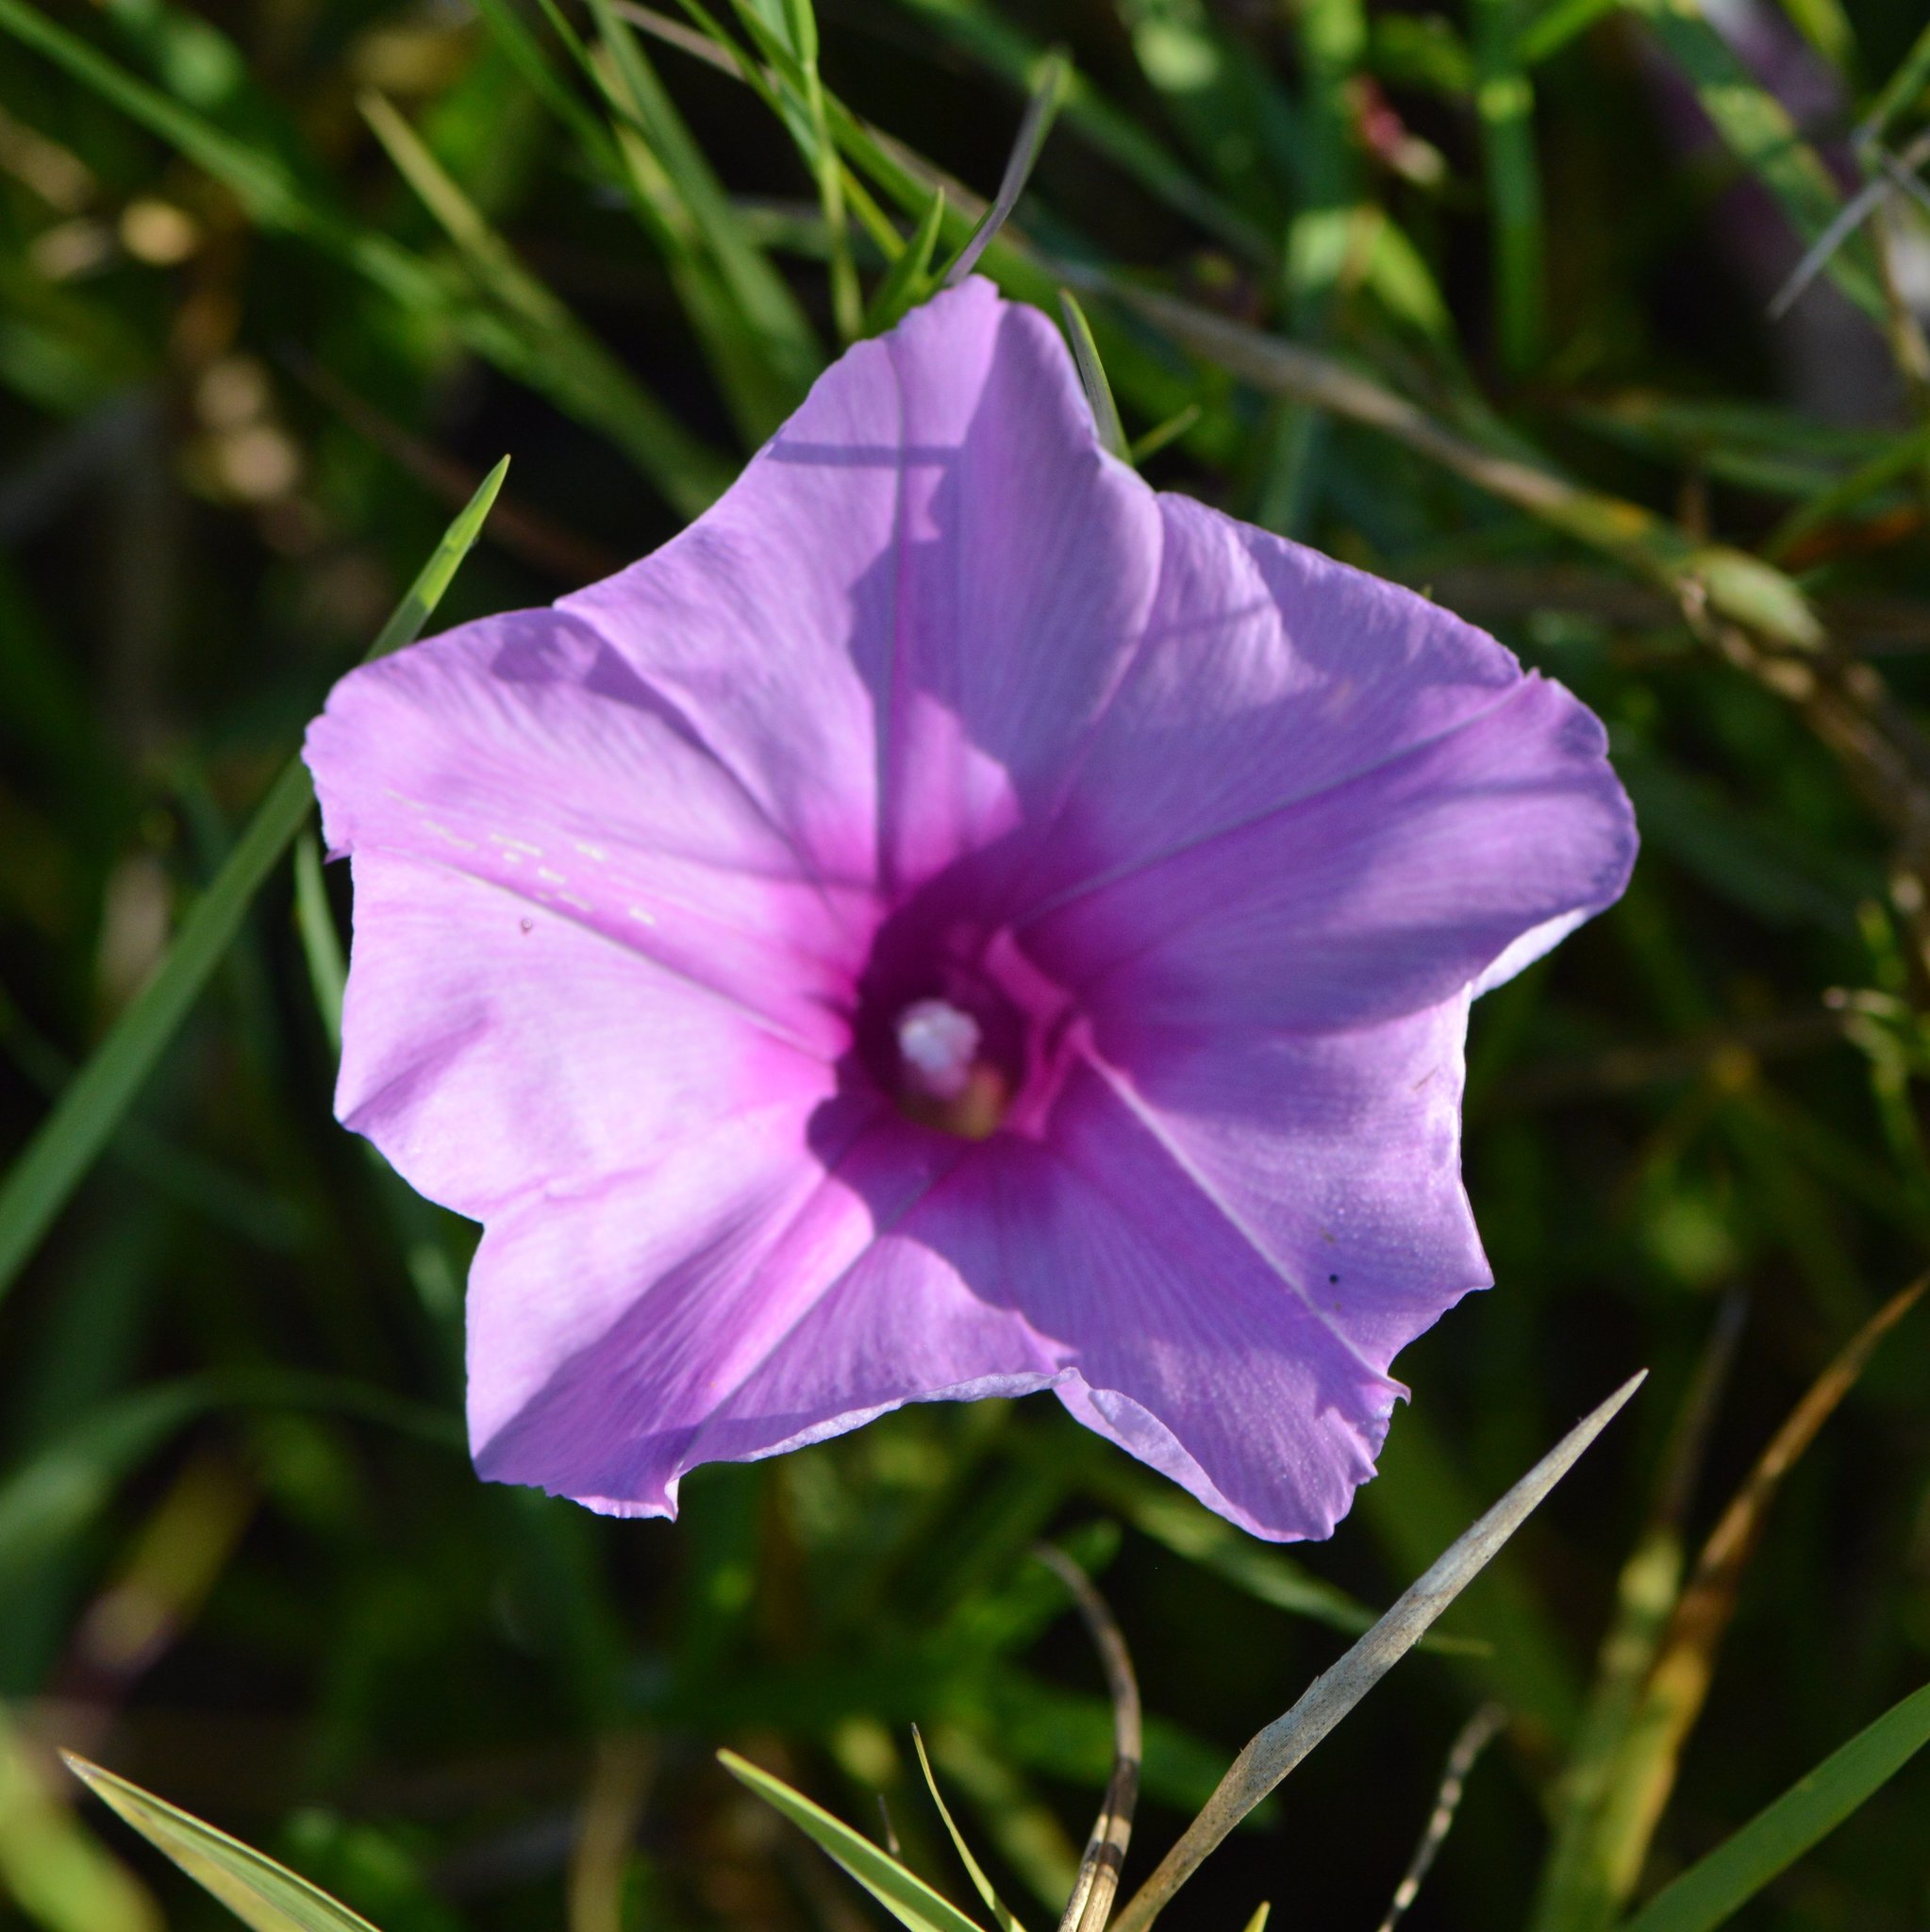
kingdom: Plantae
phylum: Tracheophyta
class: Magnoliopsida
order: Solanales
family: Convolvulaceae
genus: Ipomoea
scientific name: Ipomoea sagittata
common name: Saltmarsh morning glory
